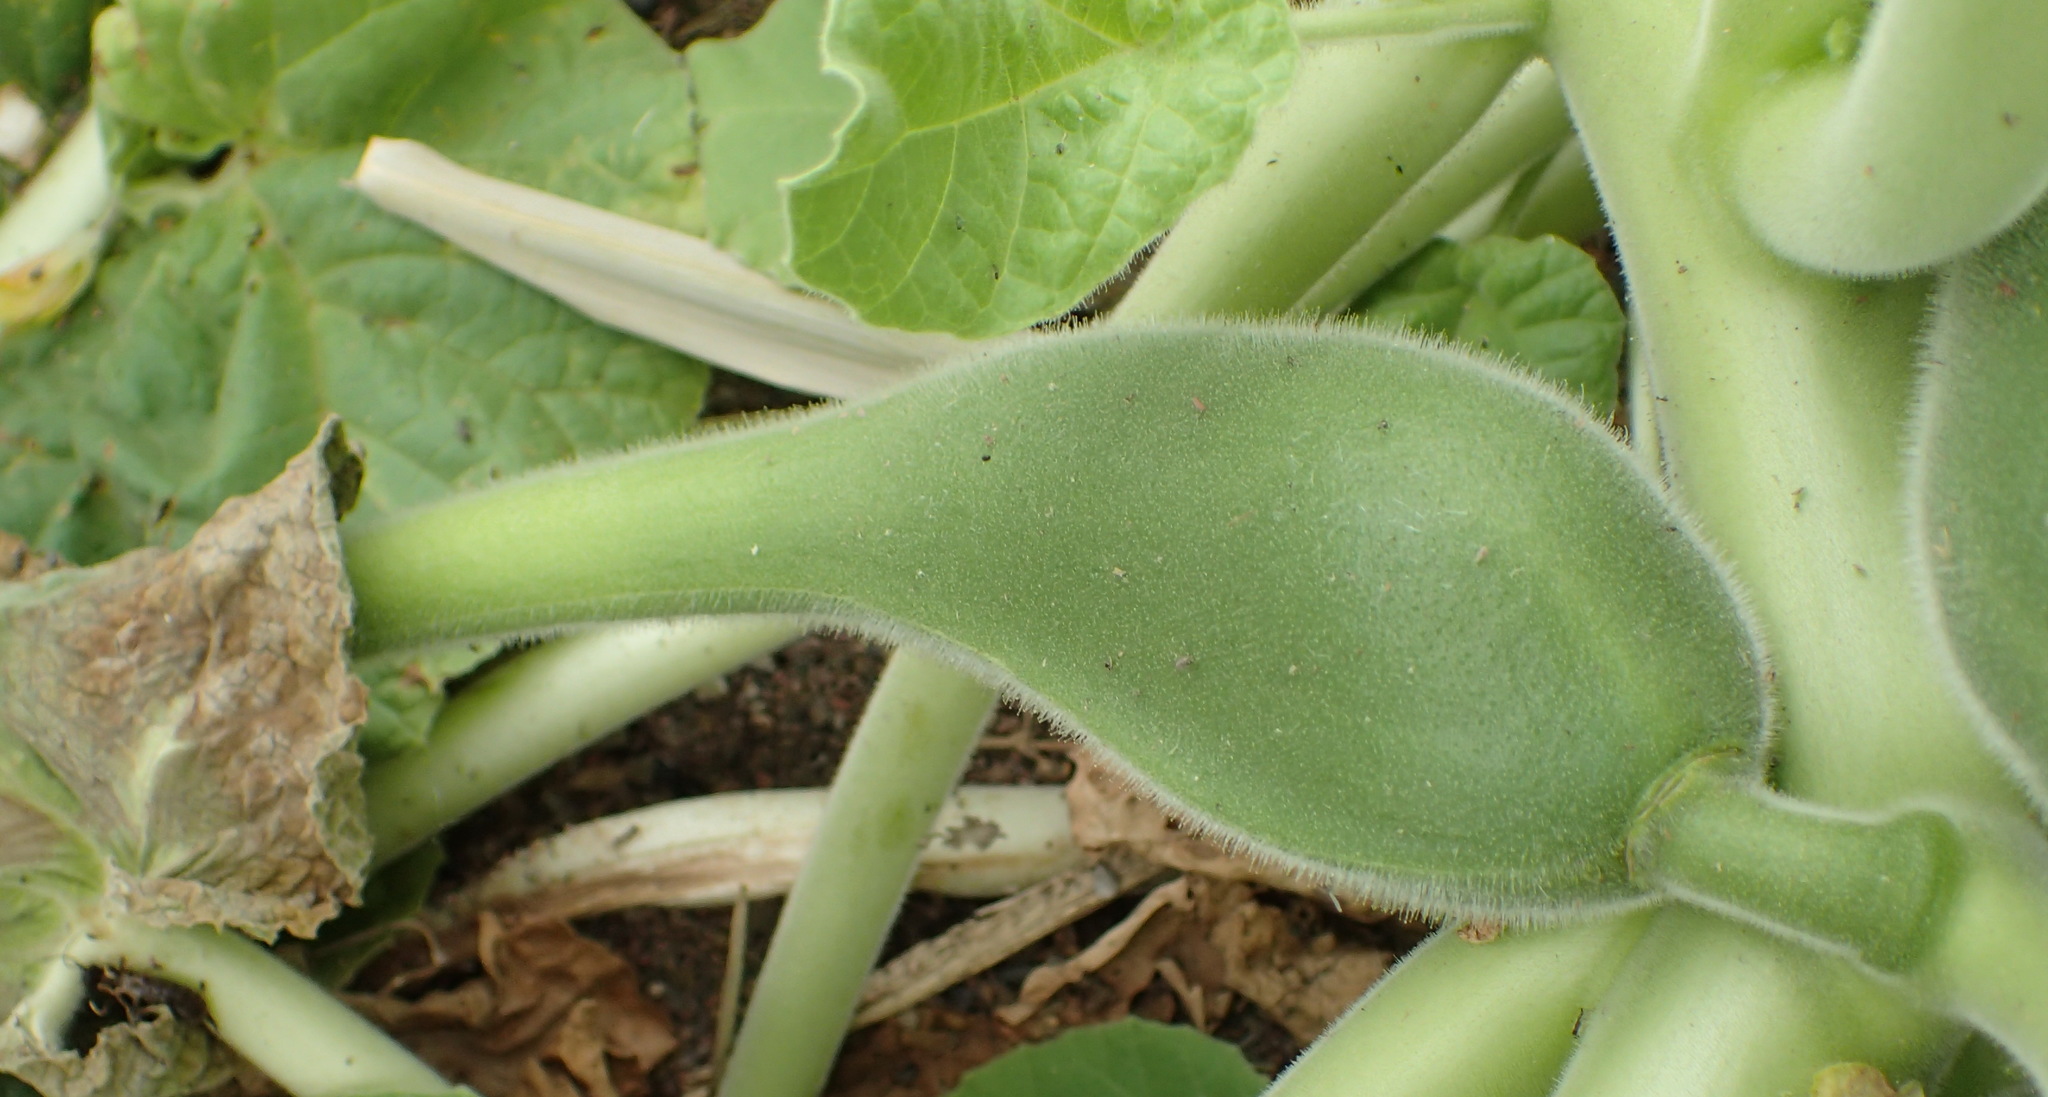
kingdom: Plantae
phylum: Tracheophyta
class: Magnoliopsida
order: Lamiales
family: Martyniaceae
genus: Ibicella
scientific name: Ibicella lutea
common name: Yellow unicorn-plant
